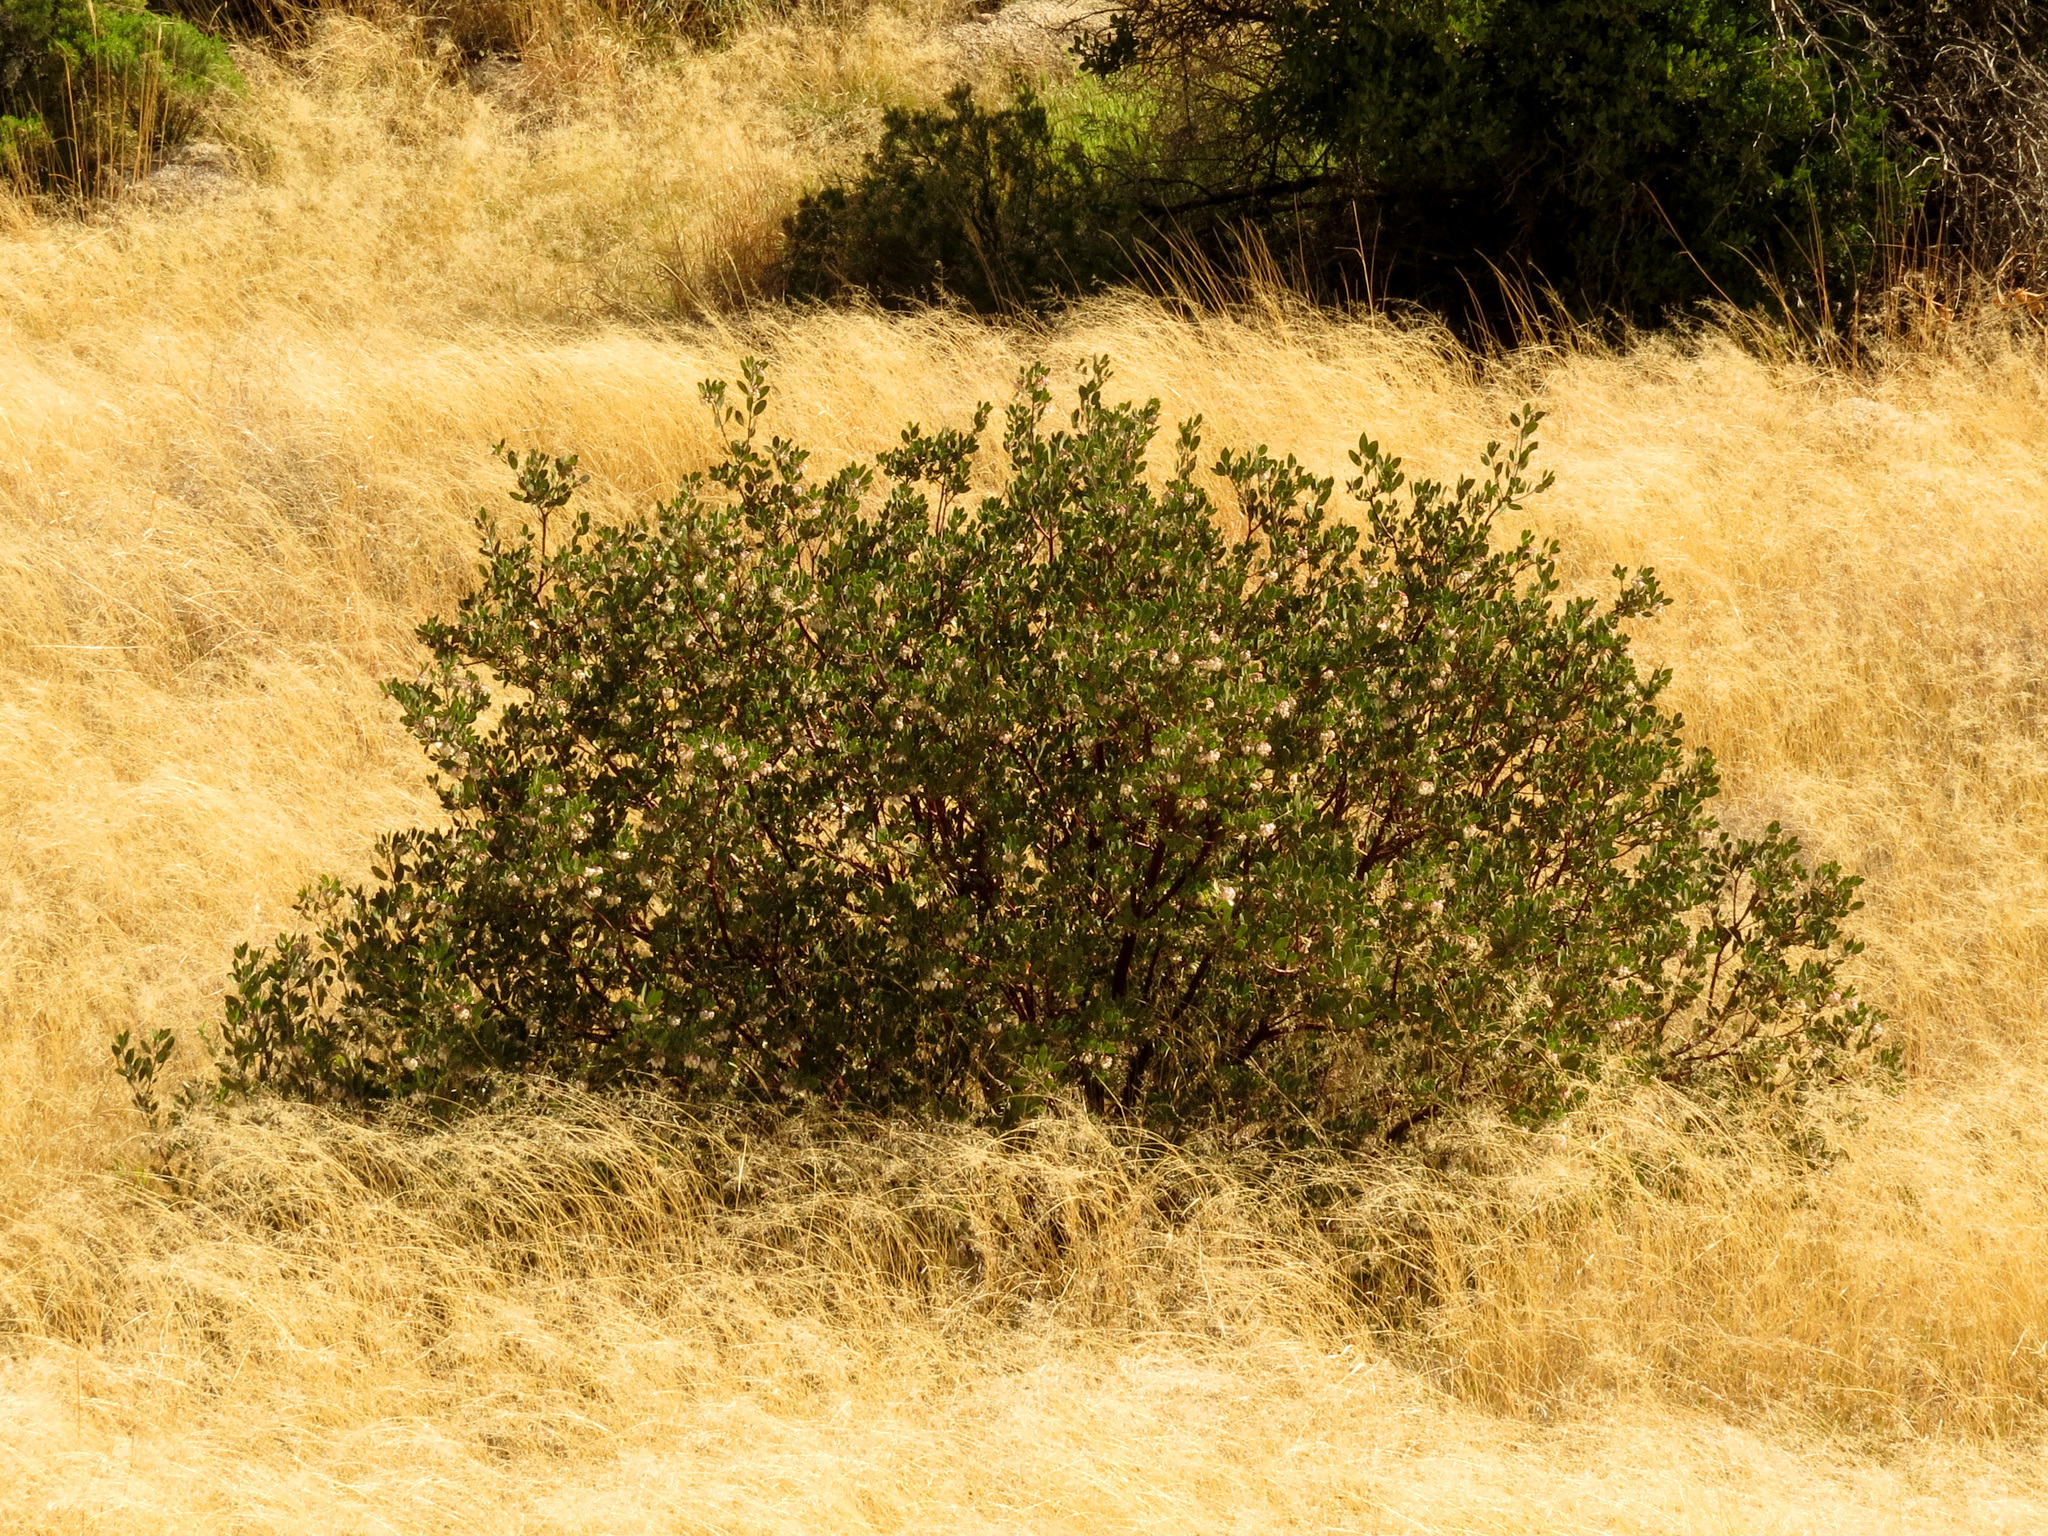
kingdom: Plantae
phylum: Tracheophyta
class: Magnoliopsida
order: Ericales
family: Ericaceae
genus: Arctostaphylos
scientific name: Arctostaphylos pungens
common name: Mexican manzanita
